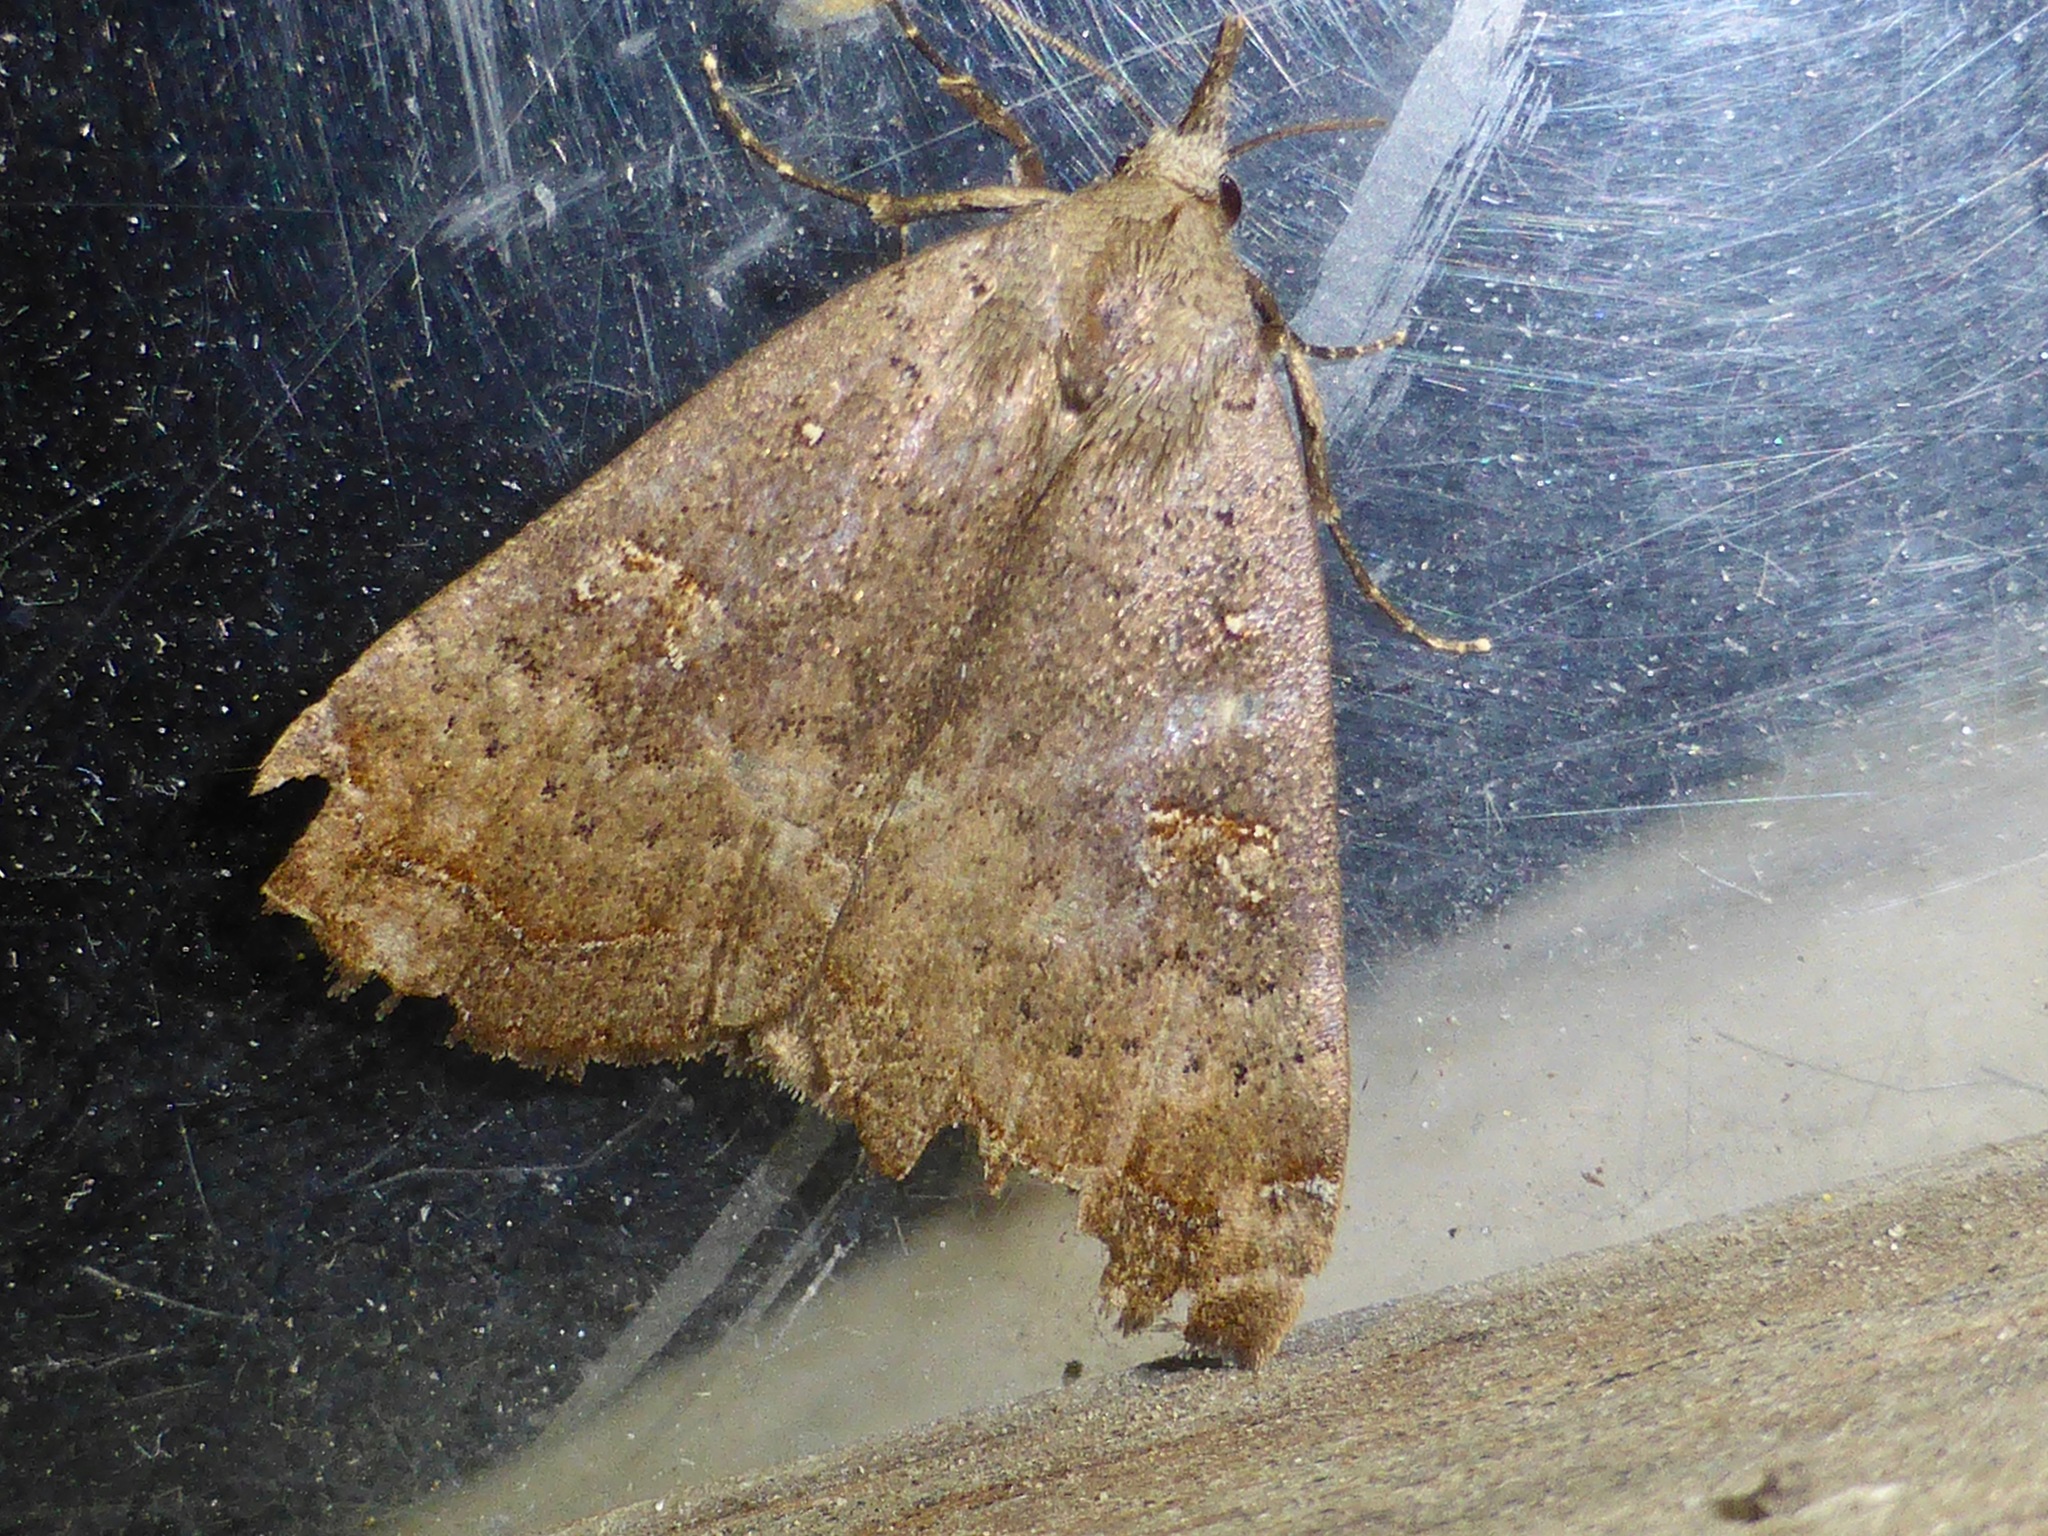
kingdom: Animalia
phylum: Arthropoda
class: Insecta
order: Lepidoptera
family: Erebidae
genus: Rhapsa
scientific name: Rhapsa scotosialis
